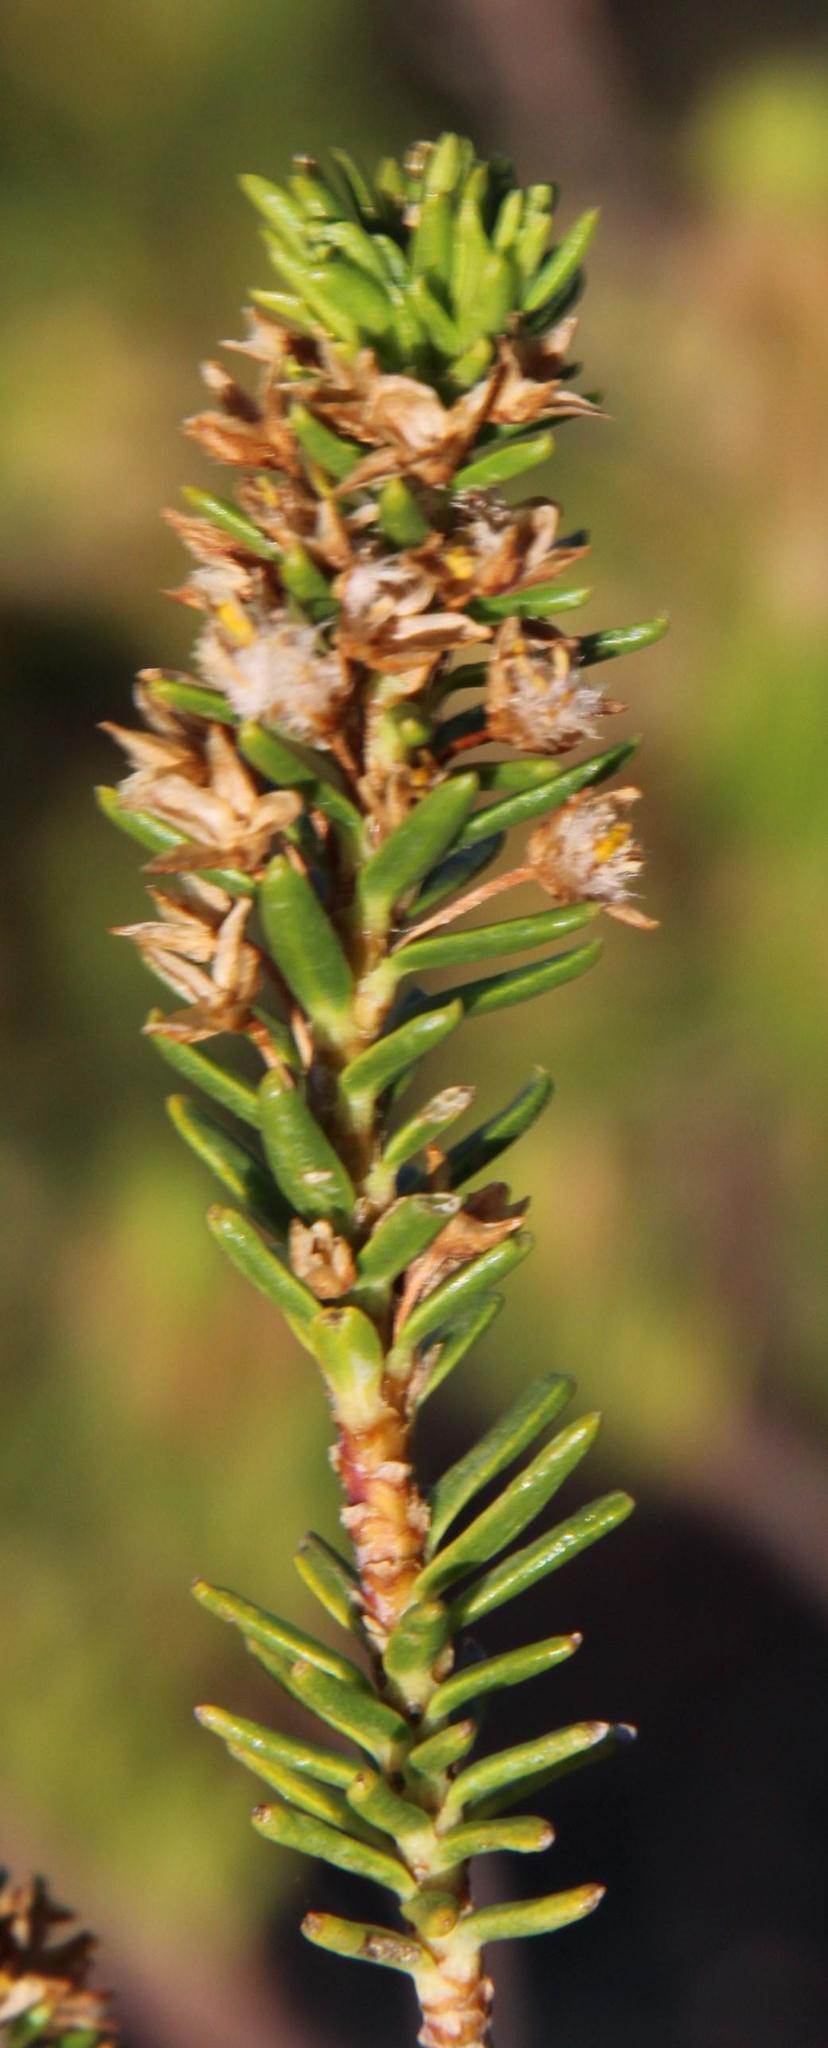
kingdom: Plantae
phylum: Tracheophyta
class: Magnoliopsida
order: Asterales
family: Asteraceae
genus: Euryops
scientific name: Euryops lateriflorus
